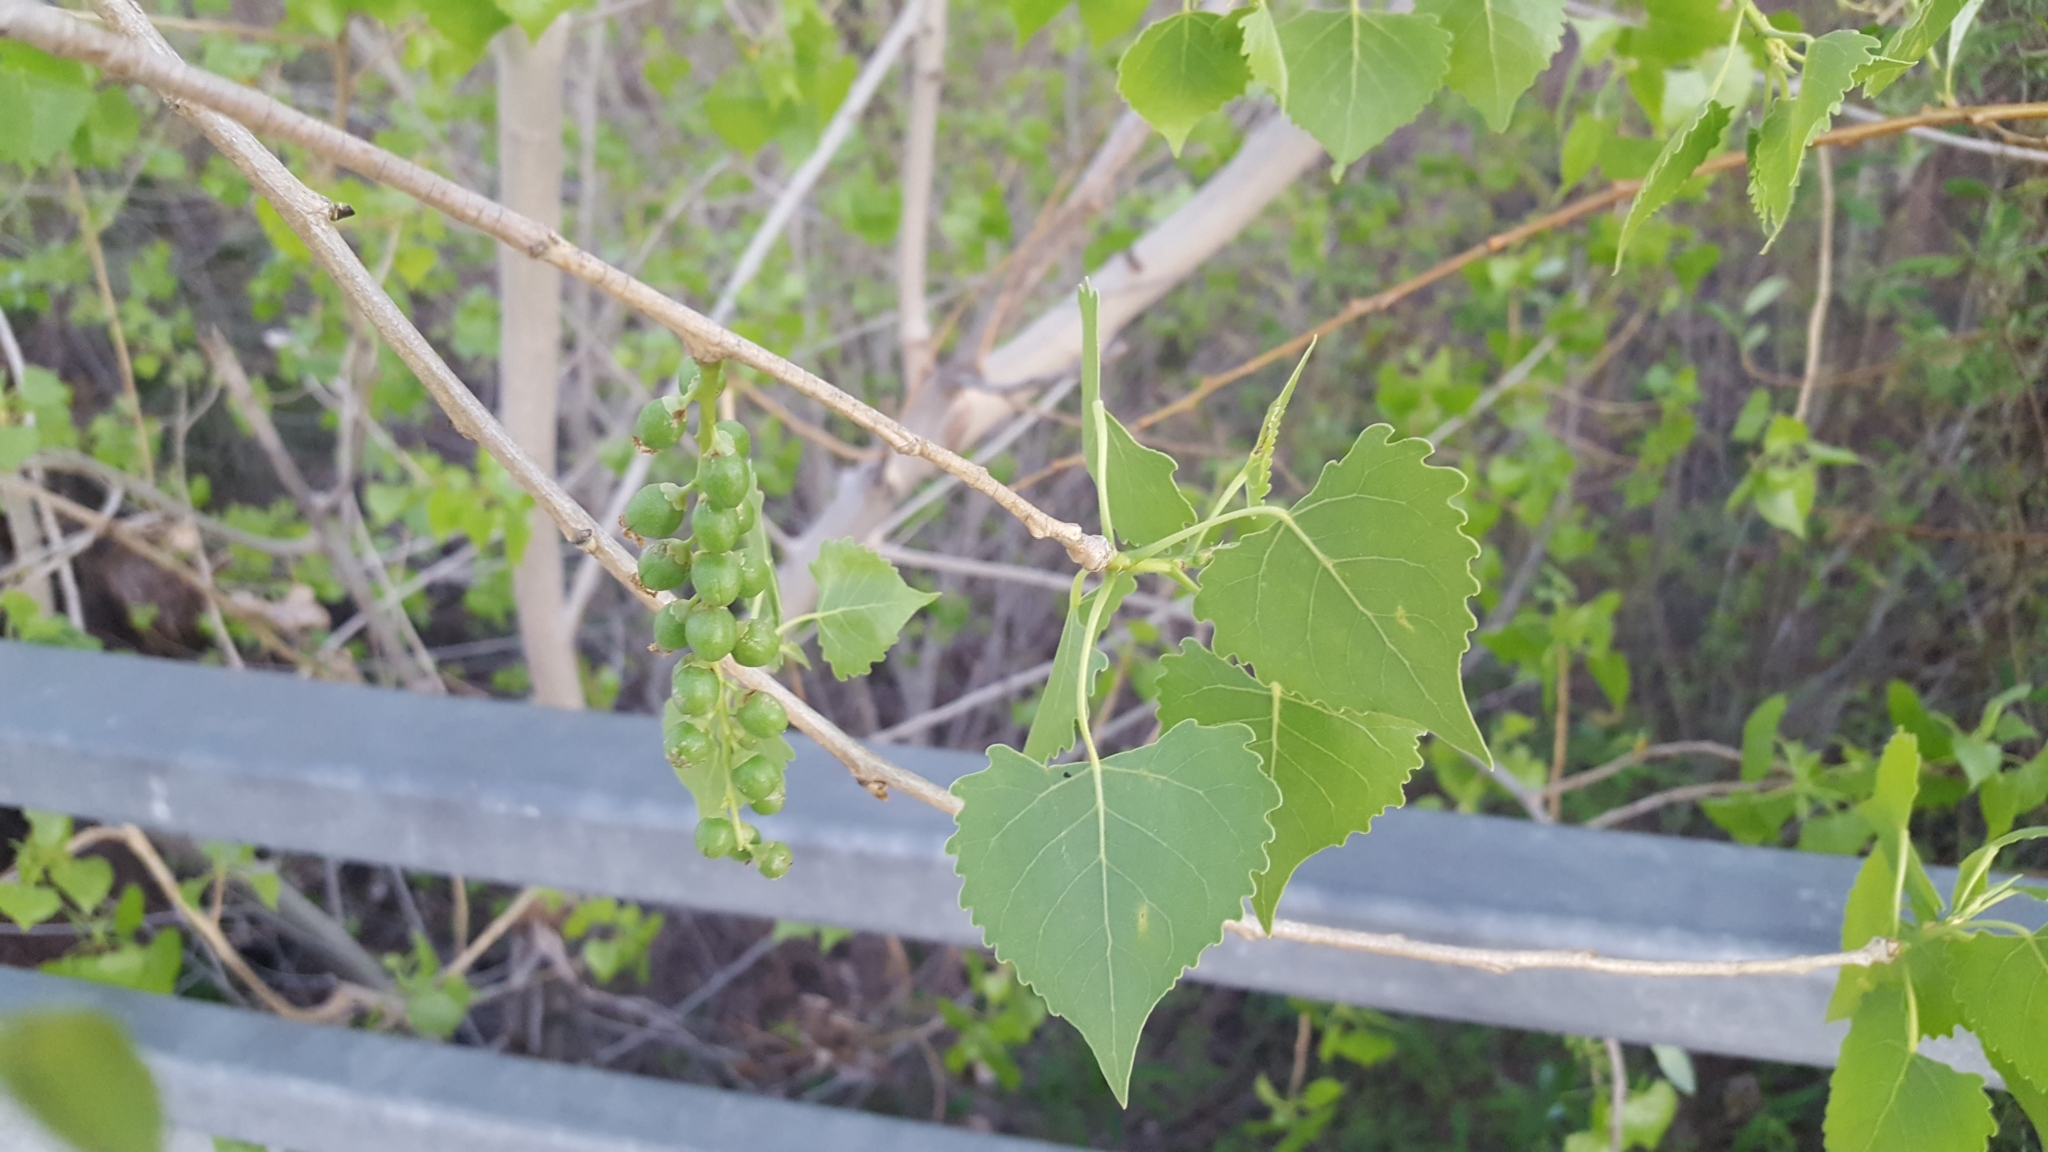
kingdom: Plantae
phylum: Tracheophyta
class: Magnoliopsida
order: Malpighiales
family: Salicaceae
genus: Populus
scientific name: Populus fremontii
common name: Fremont's cottonwood
